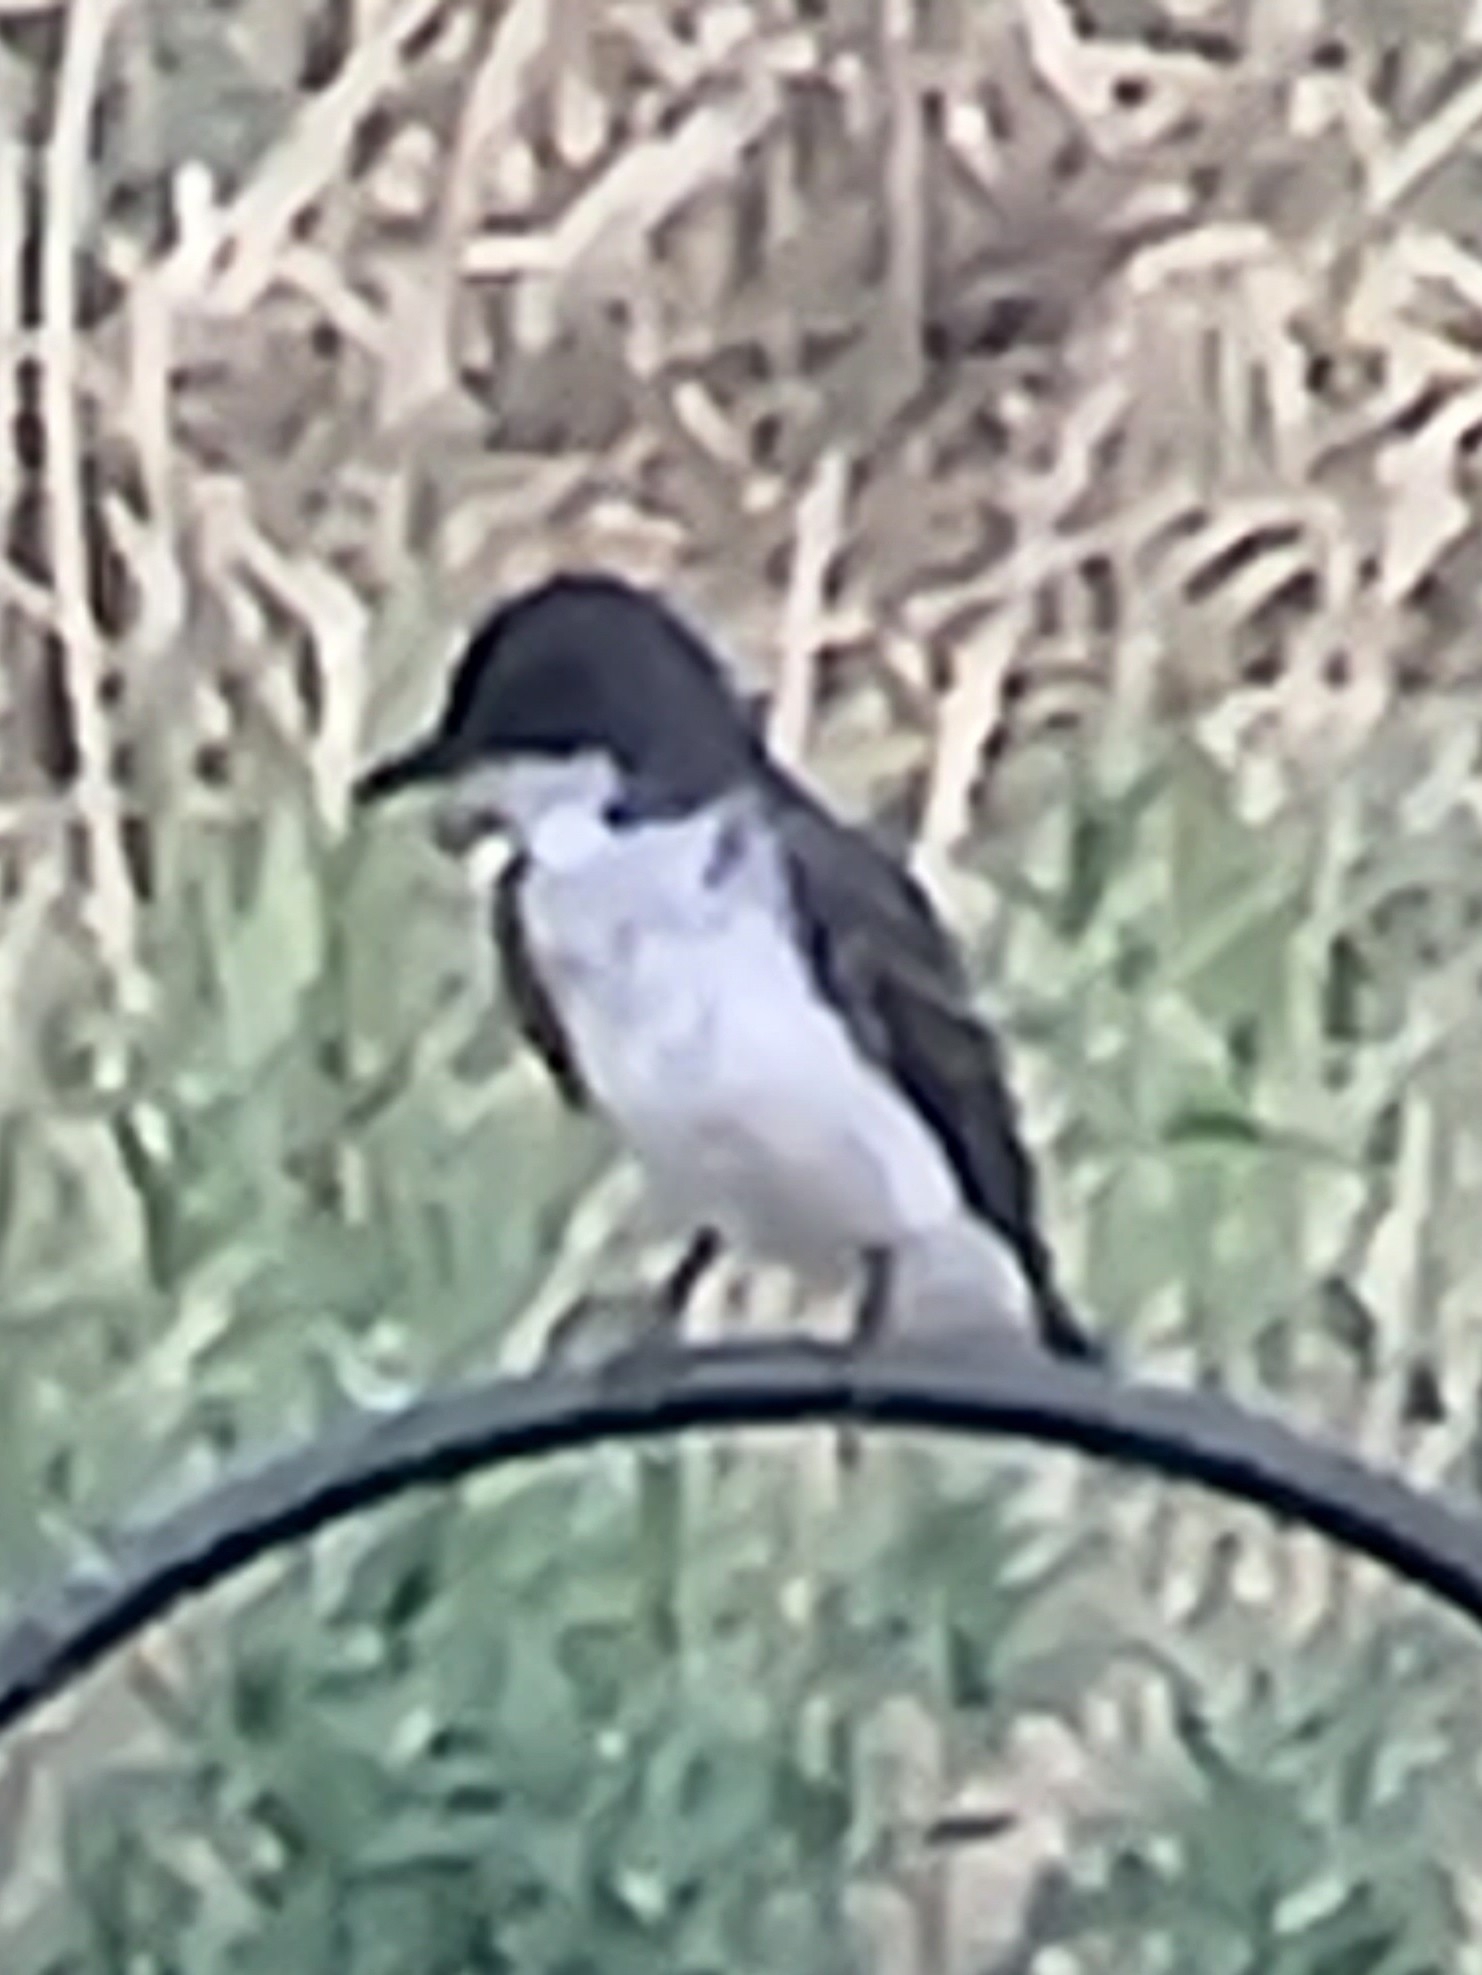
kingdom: Animalia
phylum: Chordata
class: Aves
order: Passeriformes
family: Tyrannidae
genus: Tyrannus
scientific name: Tyrannus tyrannus
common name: Eastern kingbird
